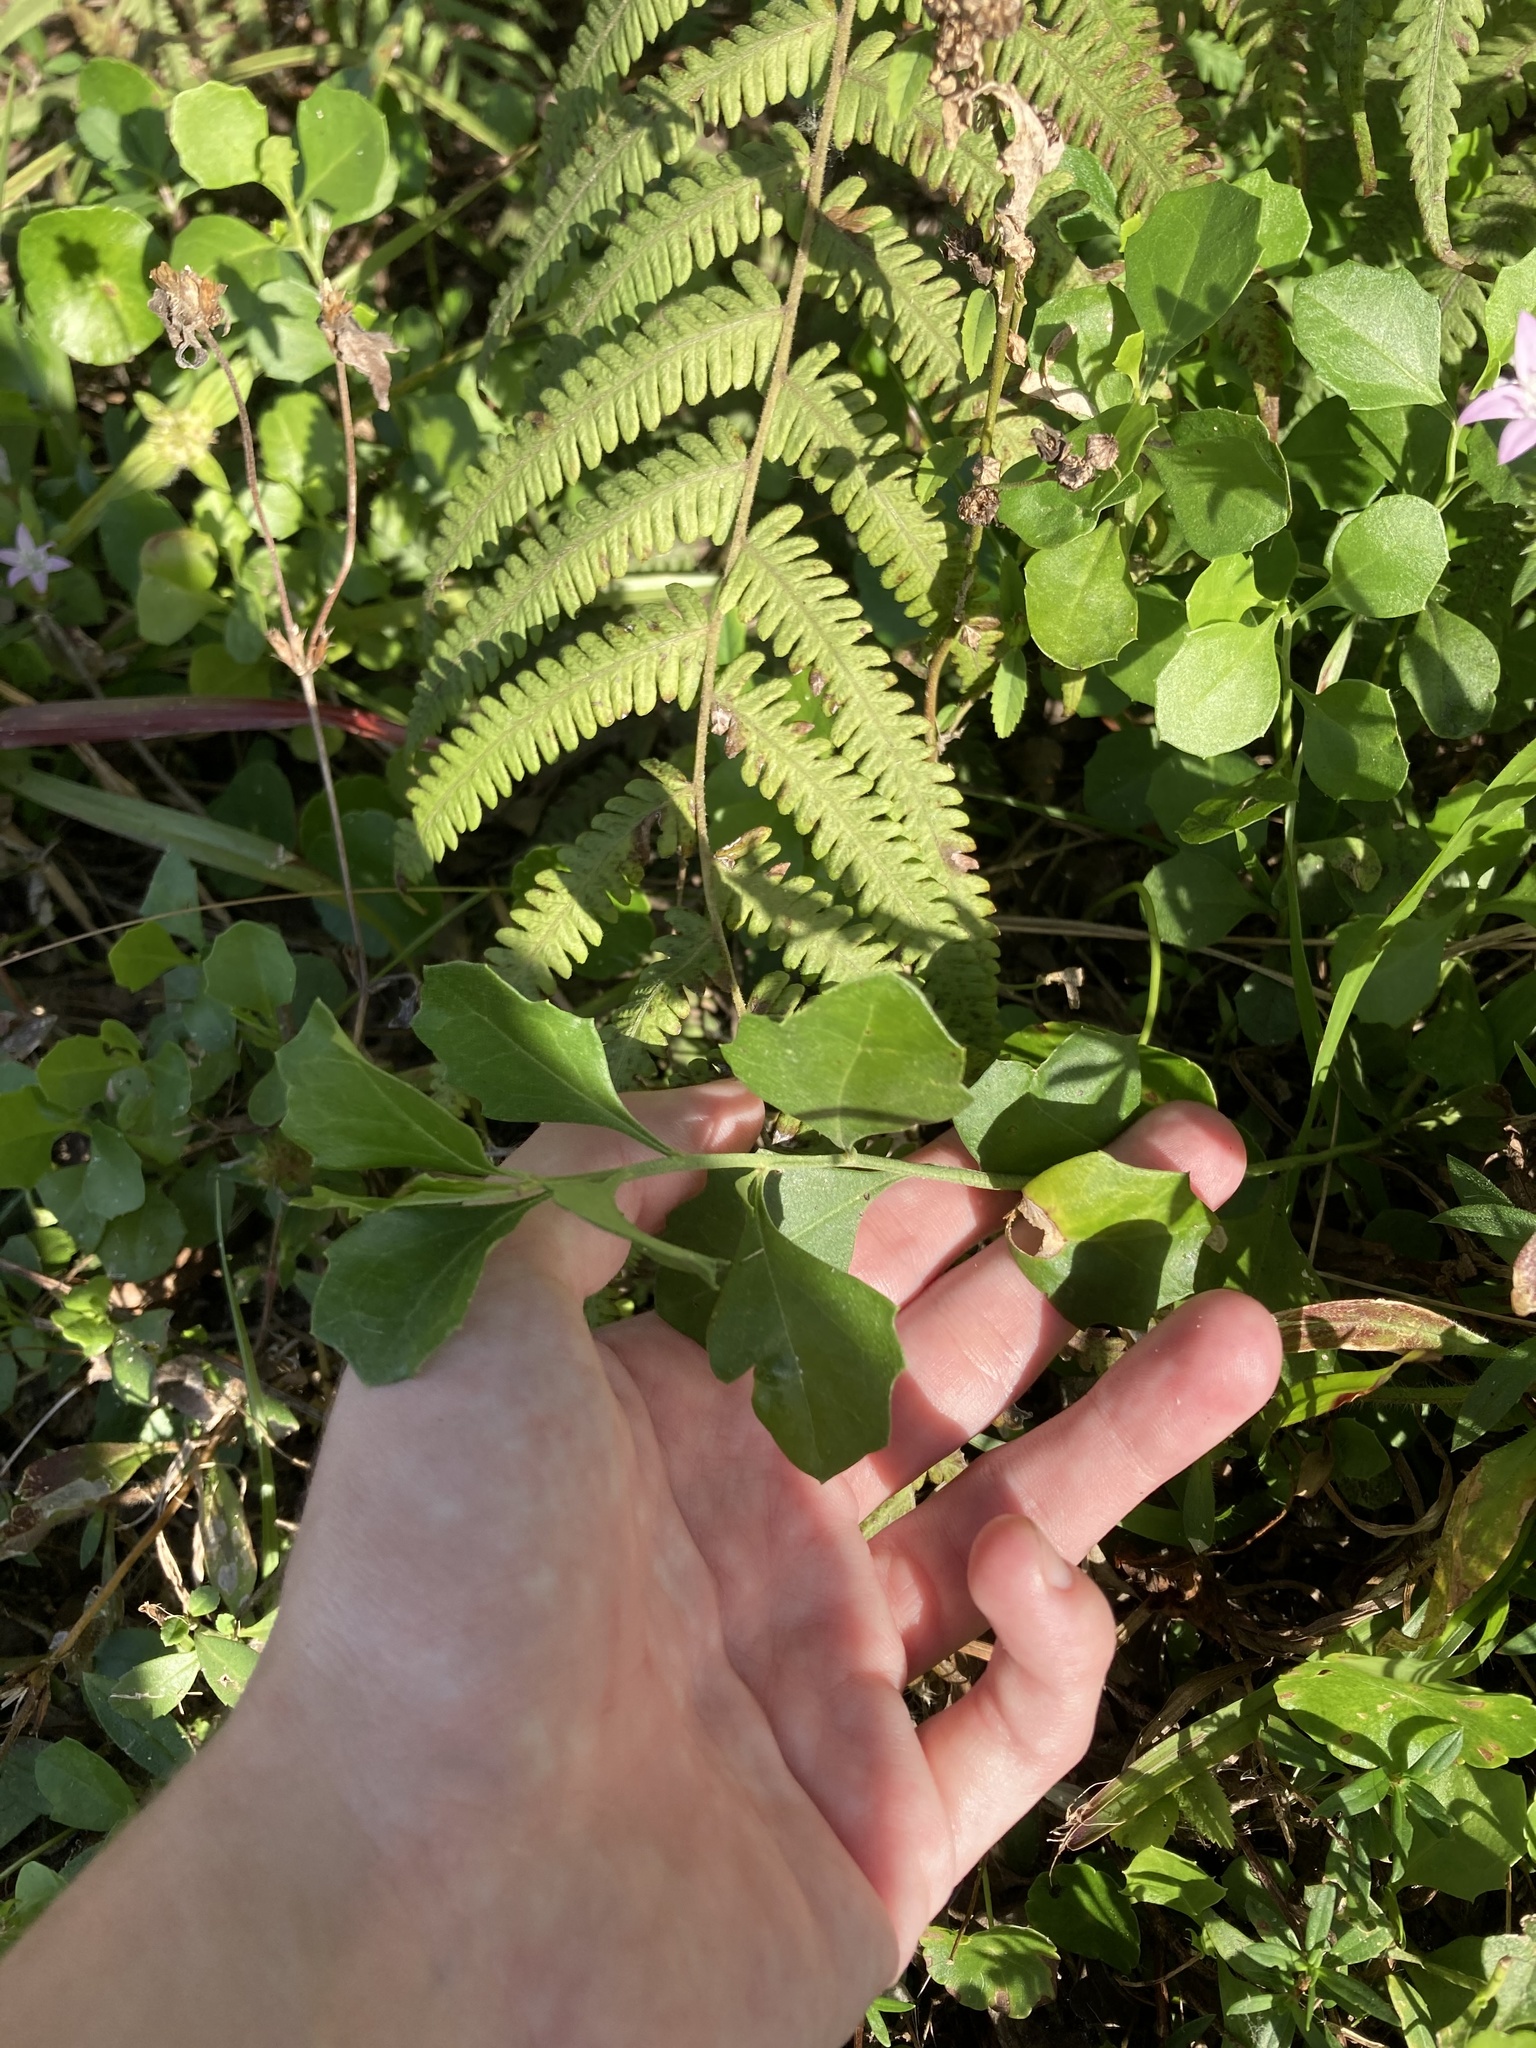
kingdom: Plantae
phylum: Tracheophyta
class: Magnoliopsida
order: Asterales
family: Asteraceae
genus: Baccharis
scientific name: Baccharis glomeruliflora
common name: Silverling groundsel bush
